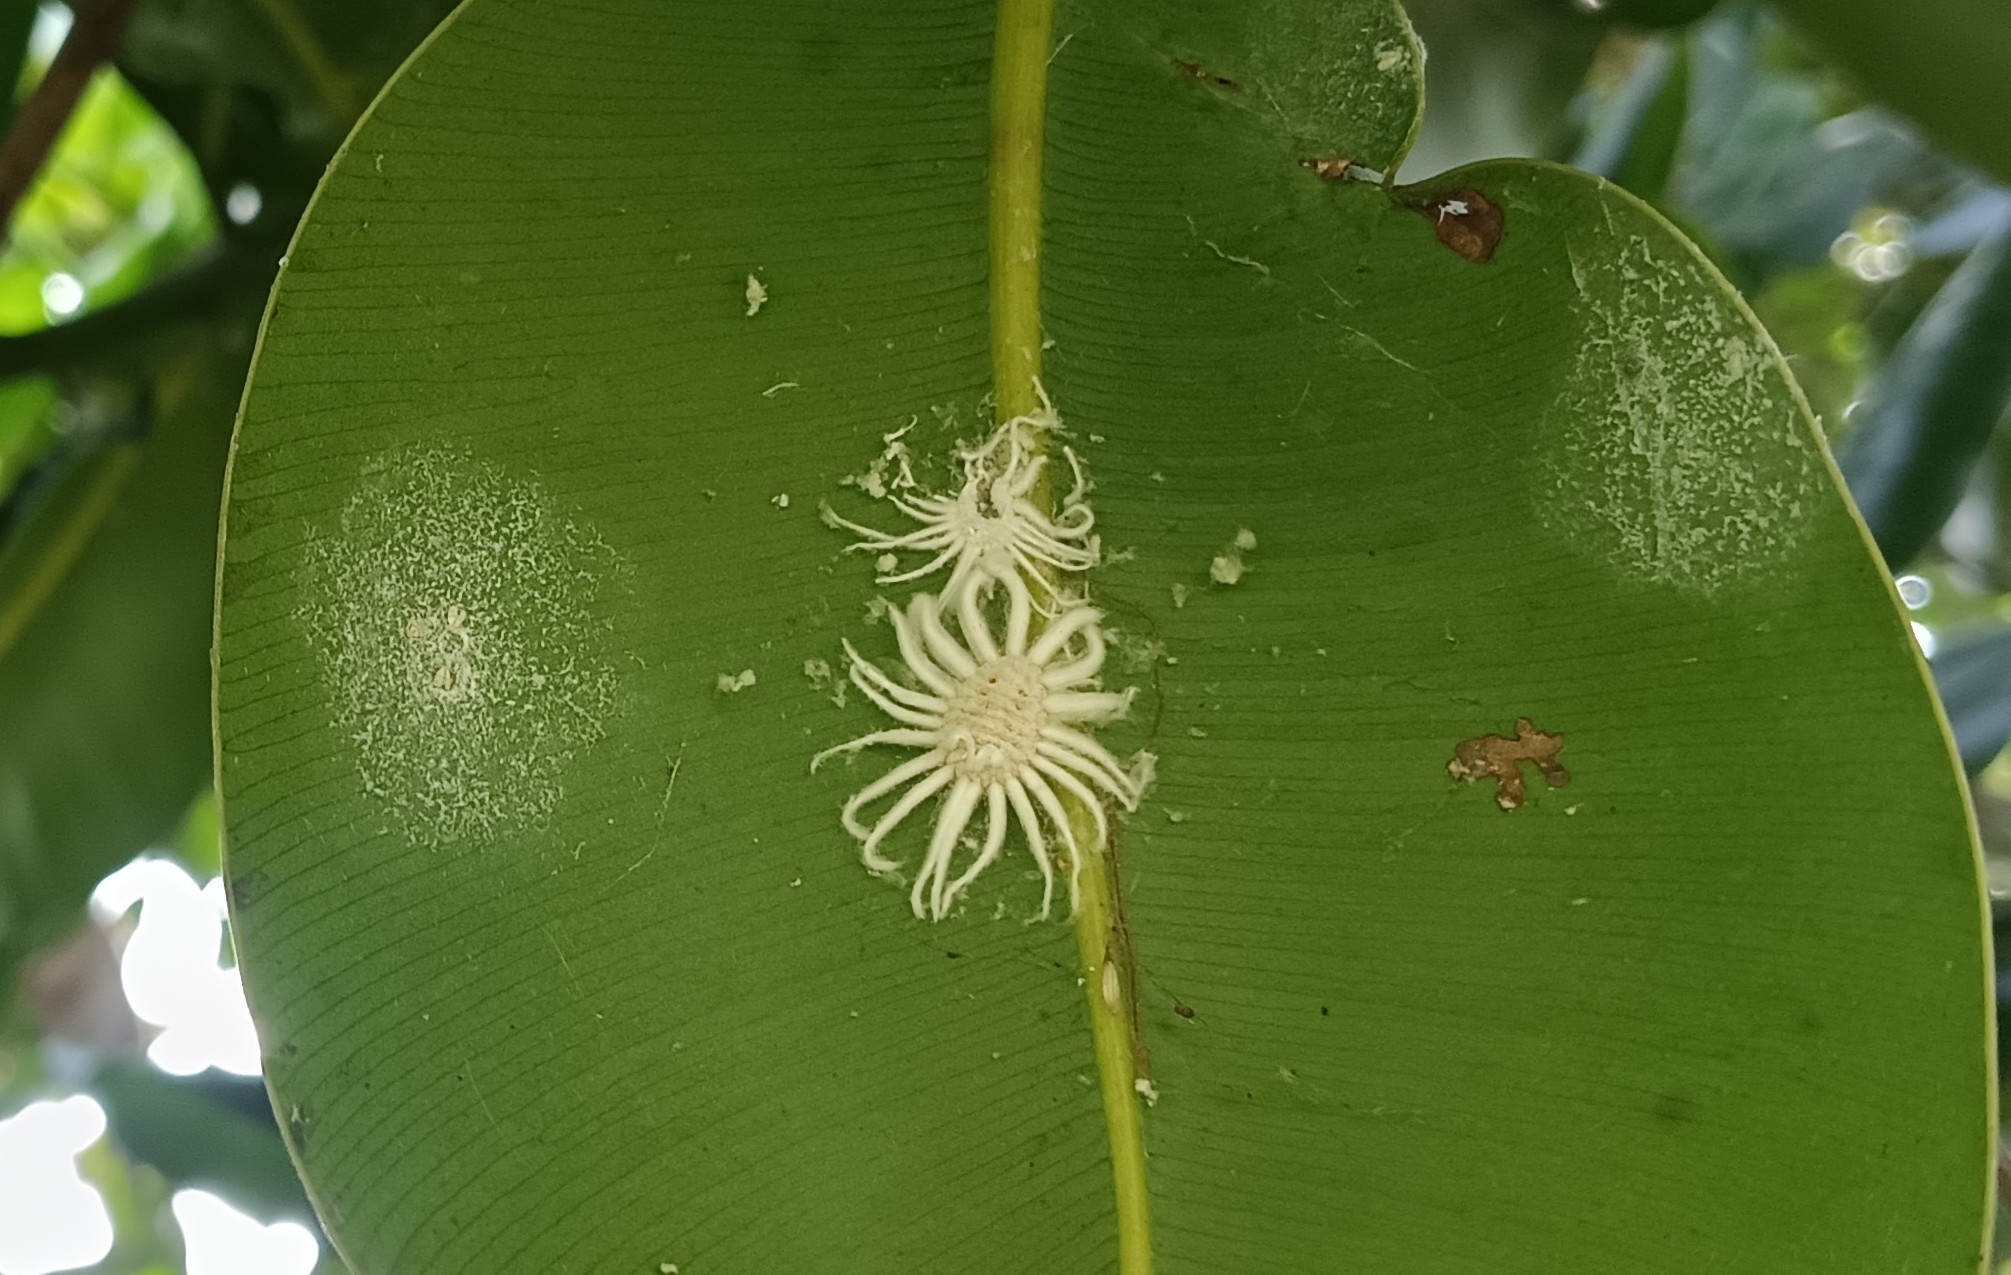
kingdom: Animalia
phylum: Arthropoda
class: Insecta
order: Hemiptera
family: Margarodidae
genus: Icerya
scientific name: Icerya aegyptiaca
